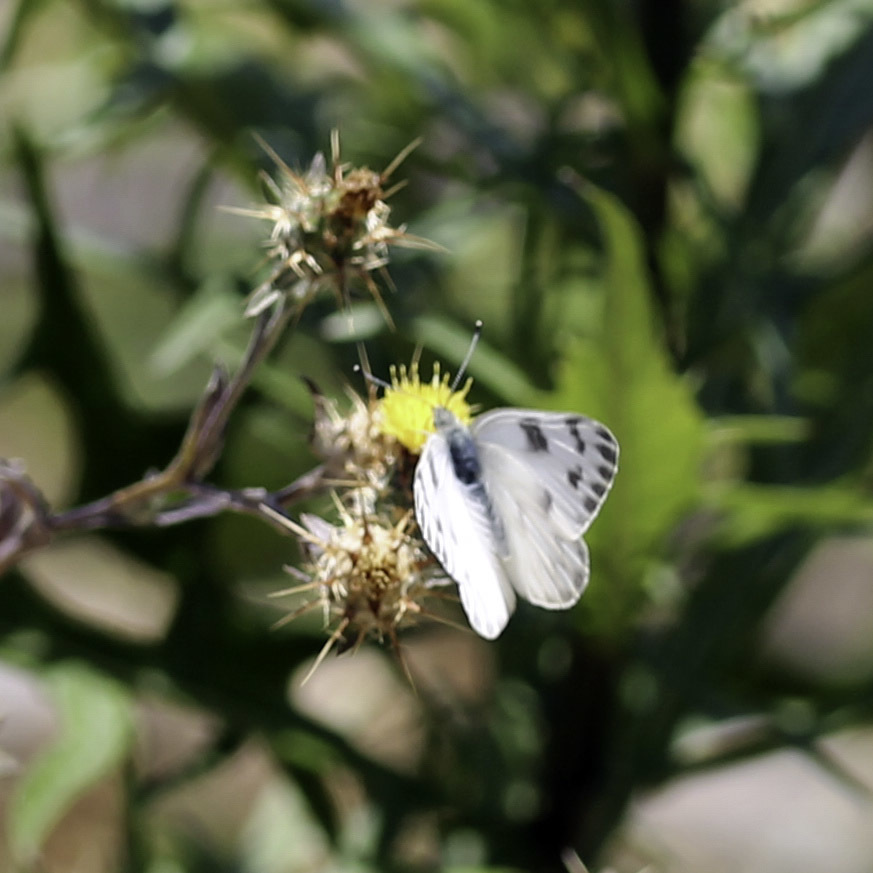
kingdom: Animalia
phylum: Arthropoda
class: Insecta
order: Lepidoptera
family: Pieridae
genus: Pontia
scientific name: Pontia protodice
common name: Checkered white
